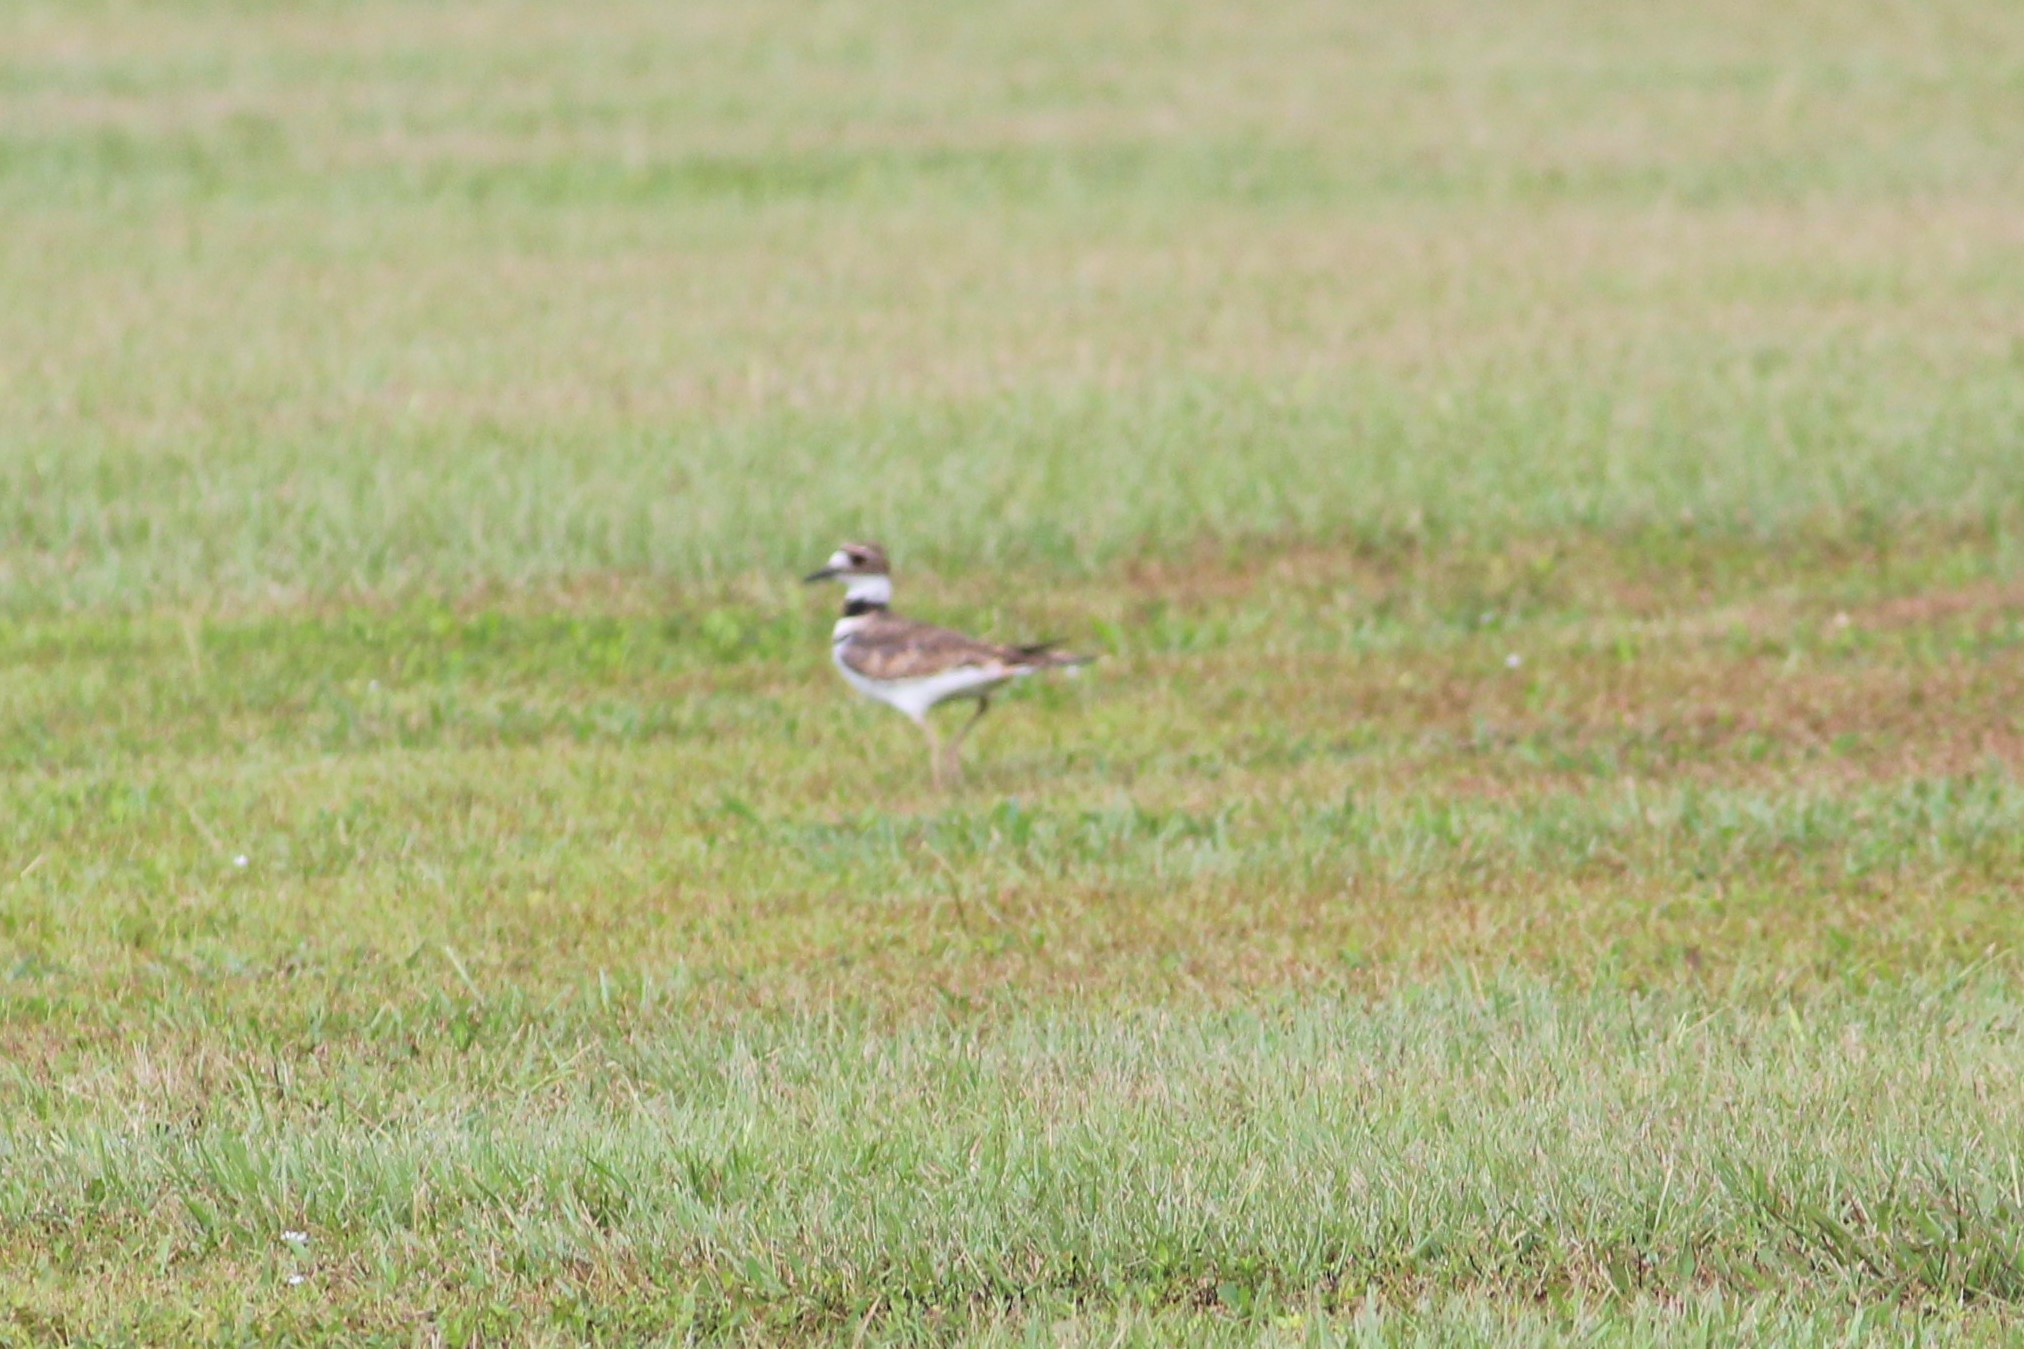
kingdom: Animalia
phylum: Chordata
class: Aves
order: Charadriiformes
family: Charadriidae
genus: Charadrius
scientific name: Charadrius vociferus
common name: Killdeer
